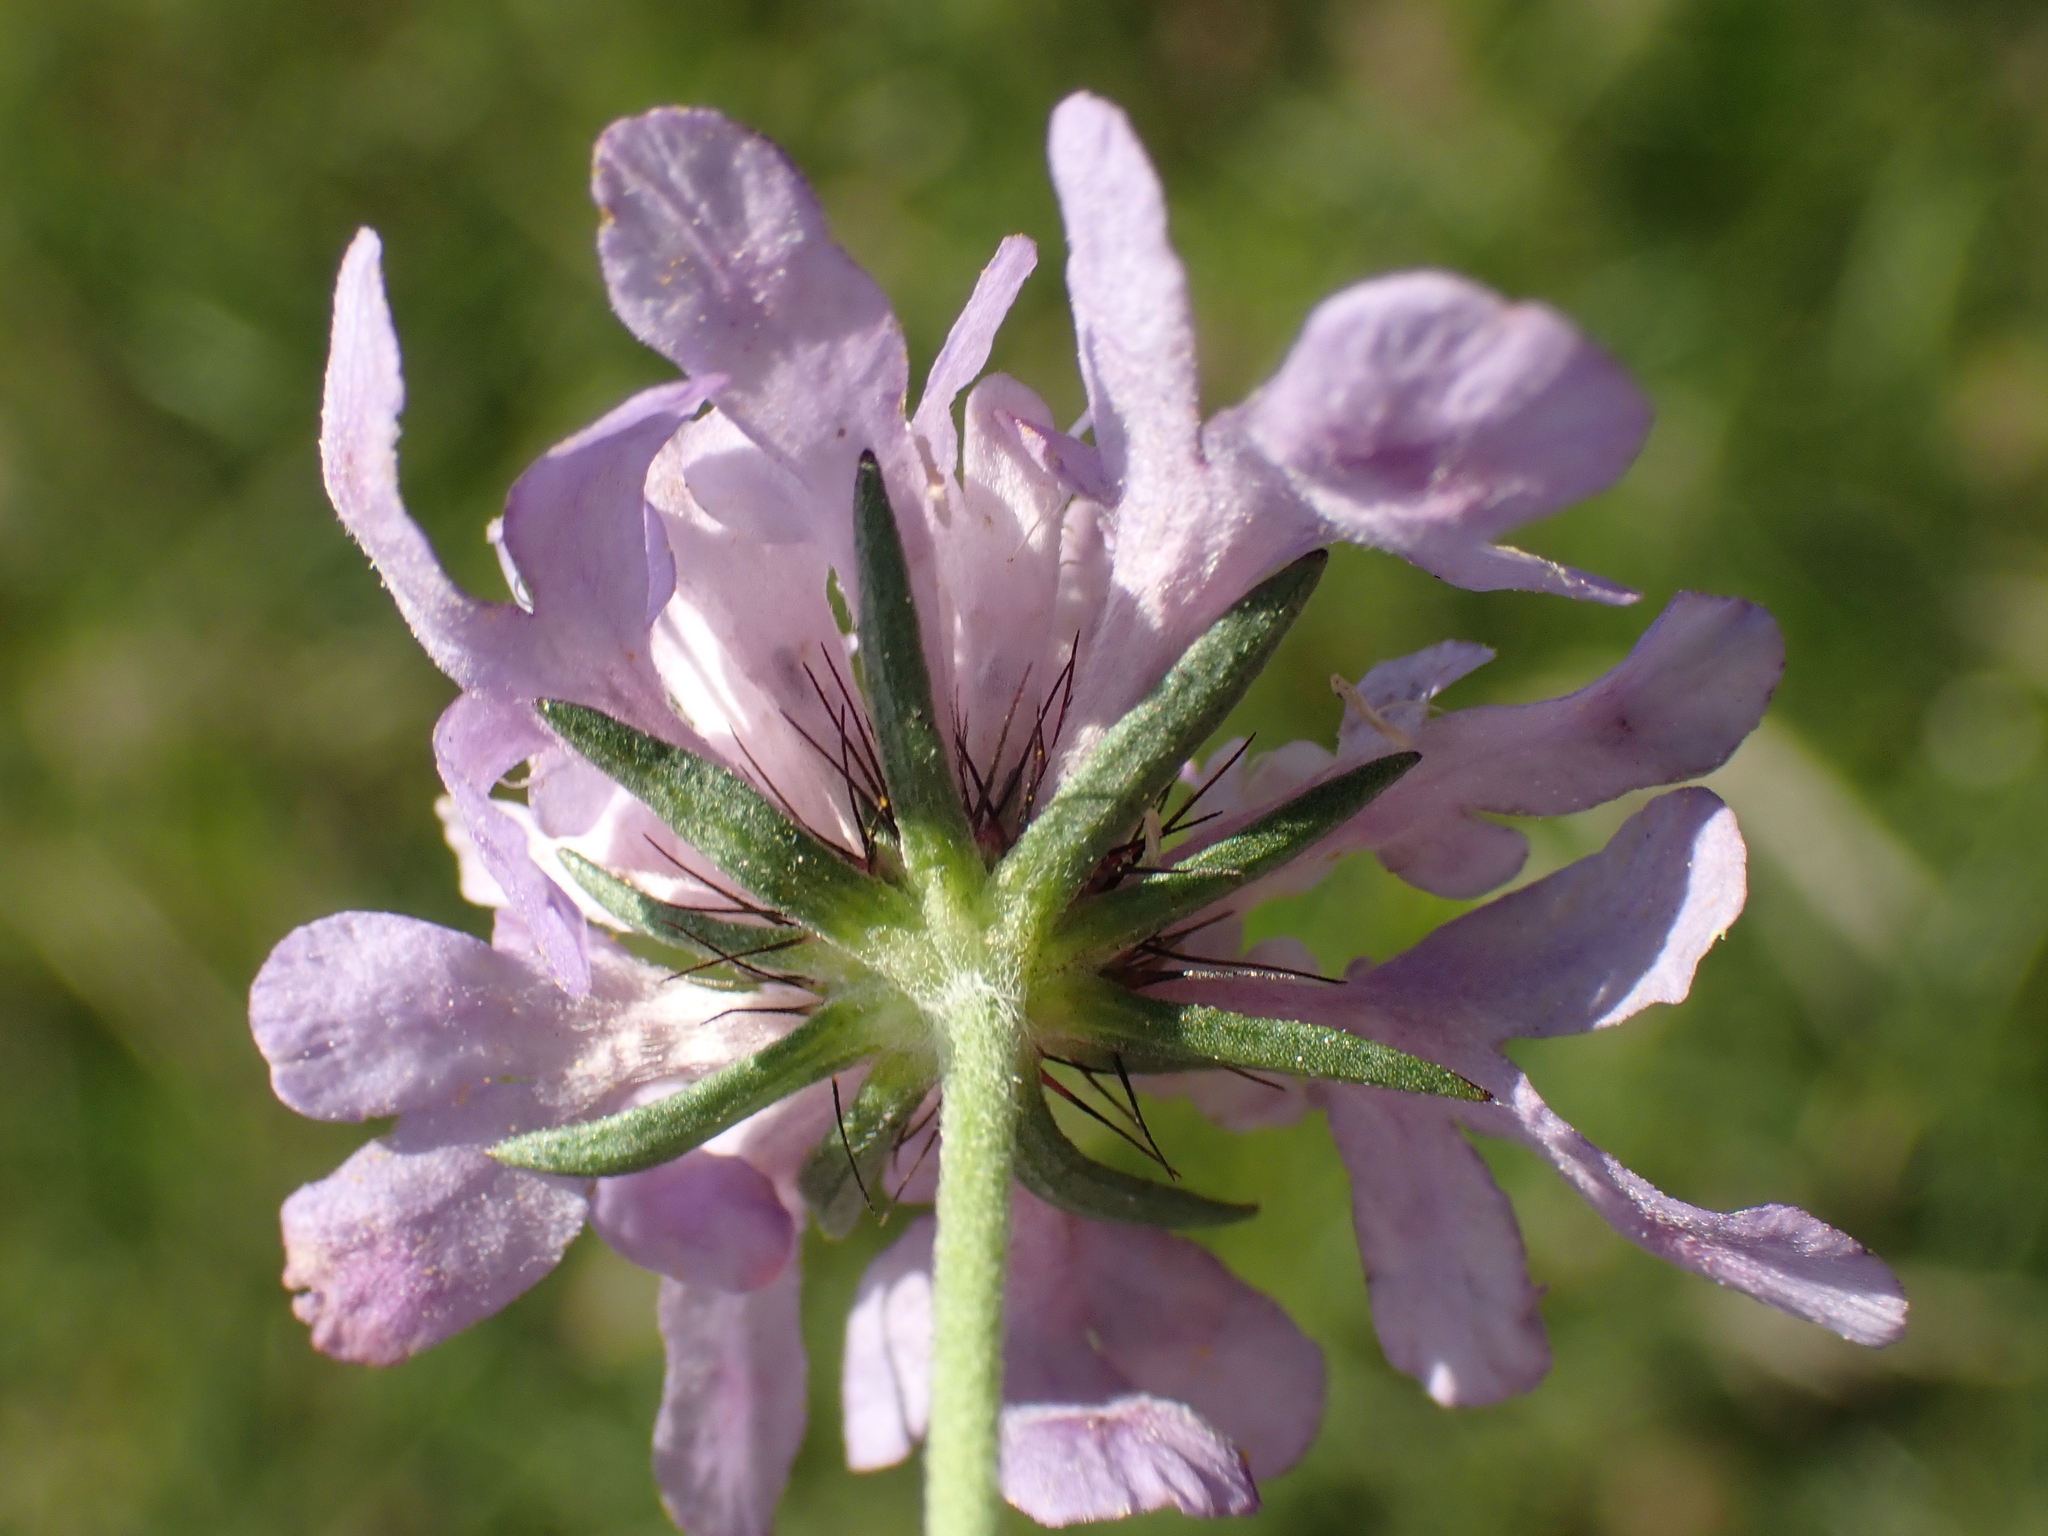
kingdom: Plantae
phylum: Tracheophyta
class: Magnoliopsida
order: Dipsacales
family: Caprifoliaceae
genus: Scabiosa
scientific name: Scabiosa columbaria
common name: Small scabious
